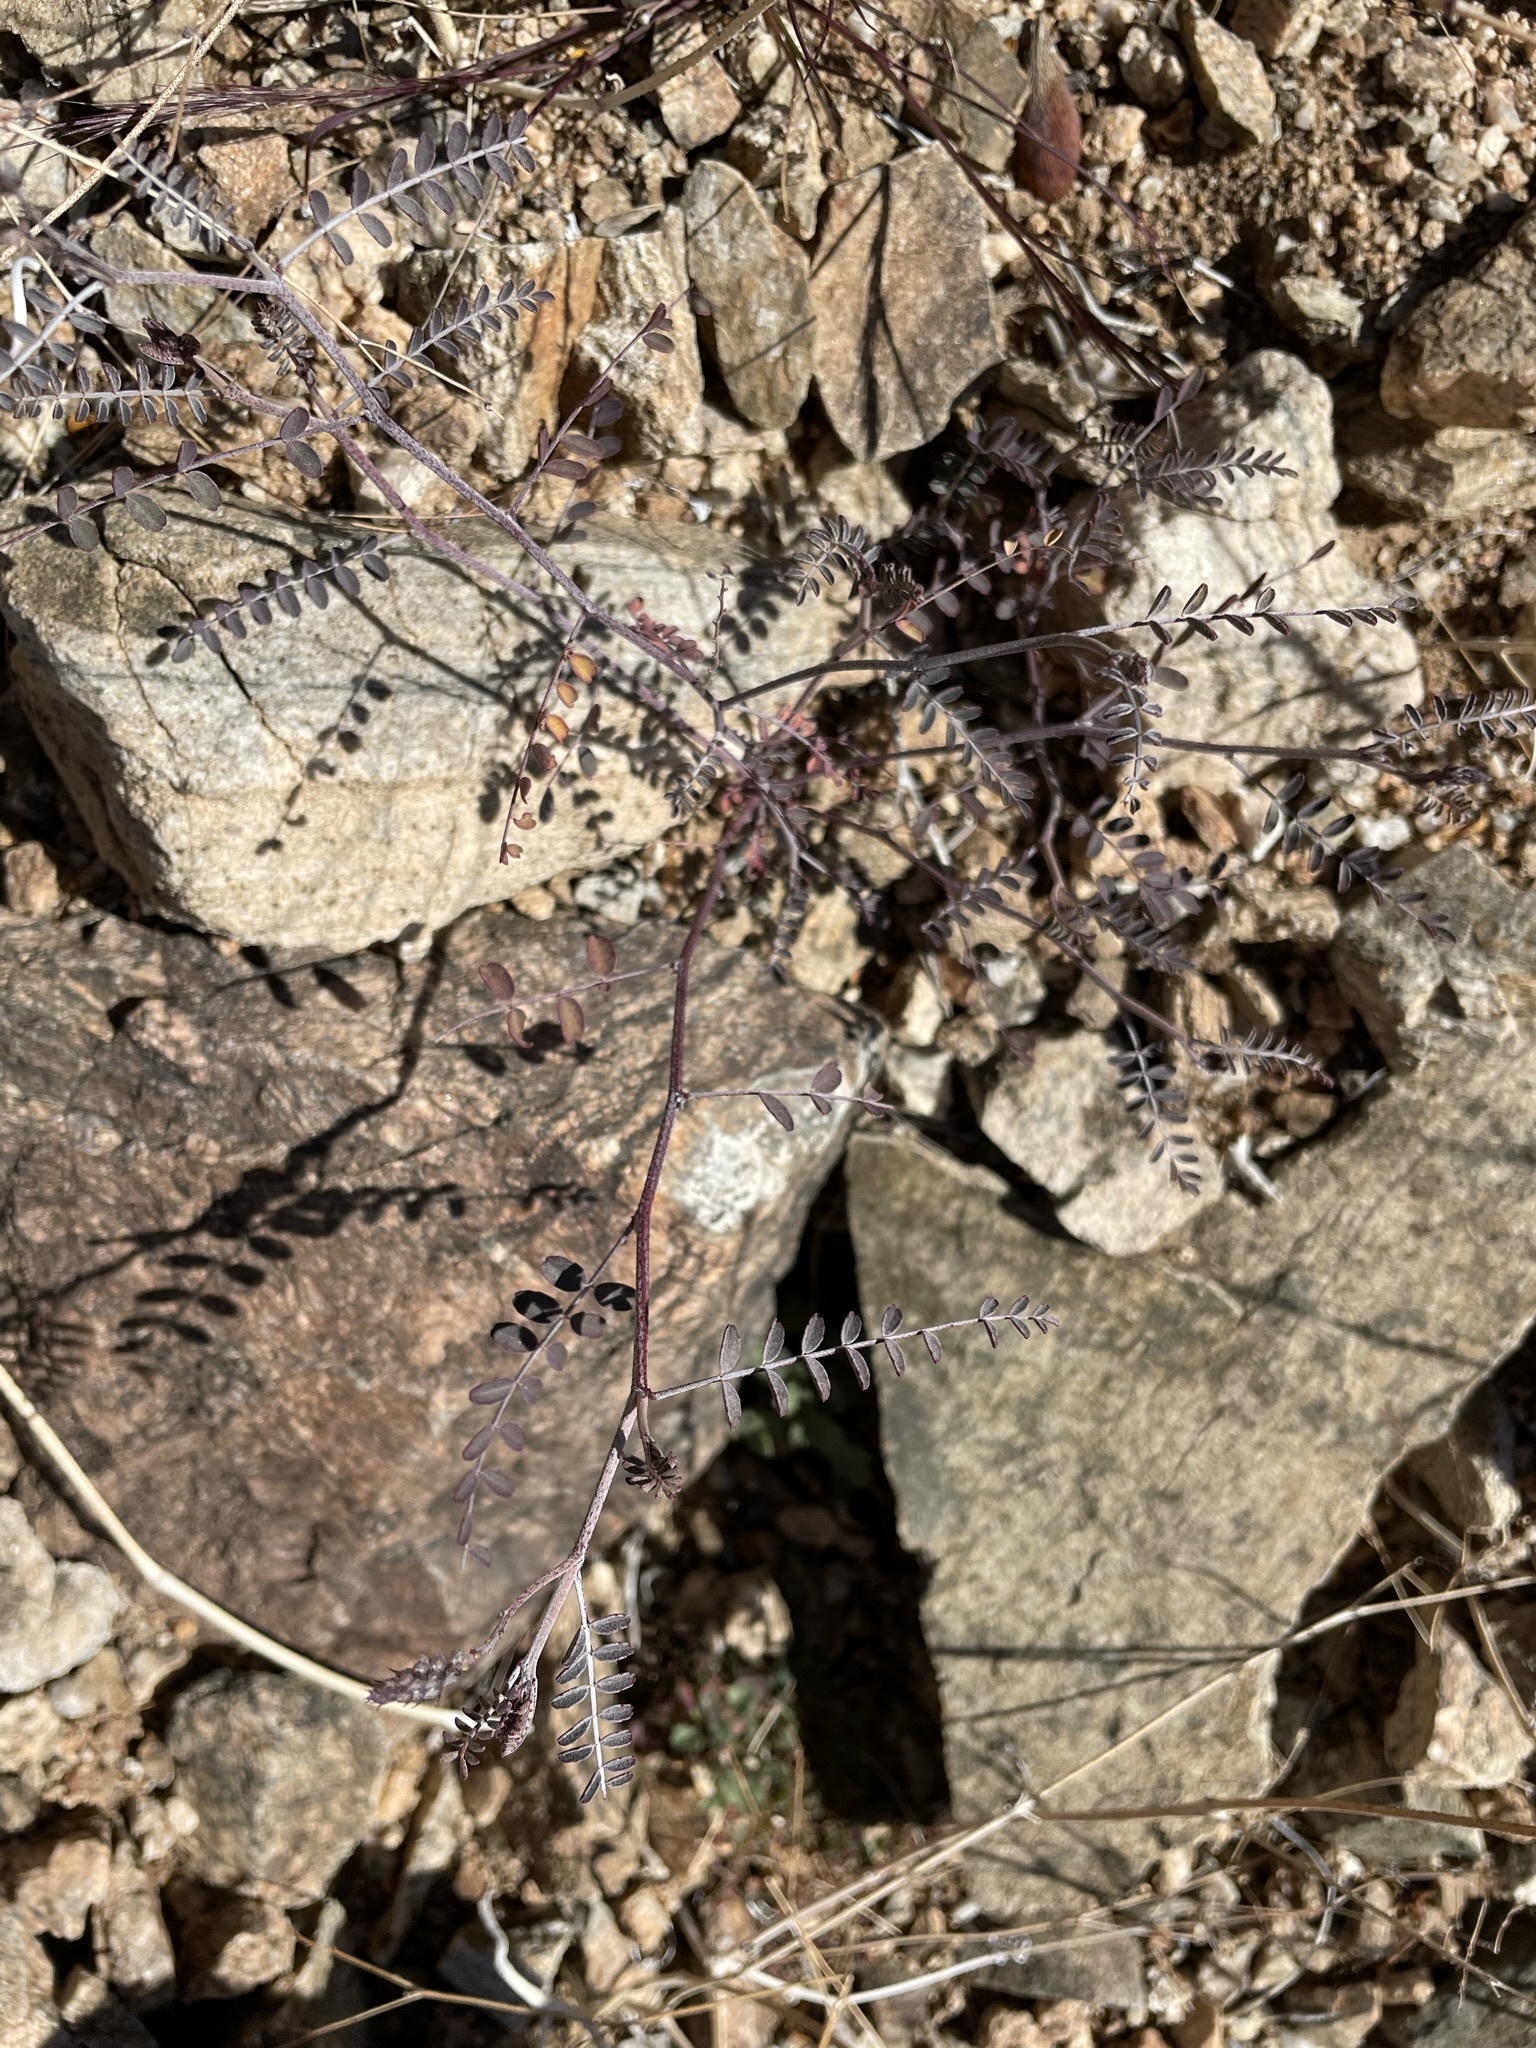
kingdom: Plantae
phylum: Tracheophyta
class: Magnoliopsida
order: Fabales
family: Fabaceae
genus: Marina
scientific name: Marina parryi
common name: Parry's marina
